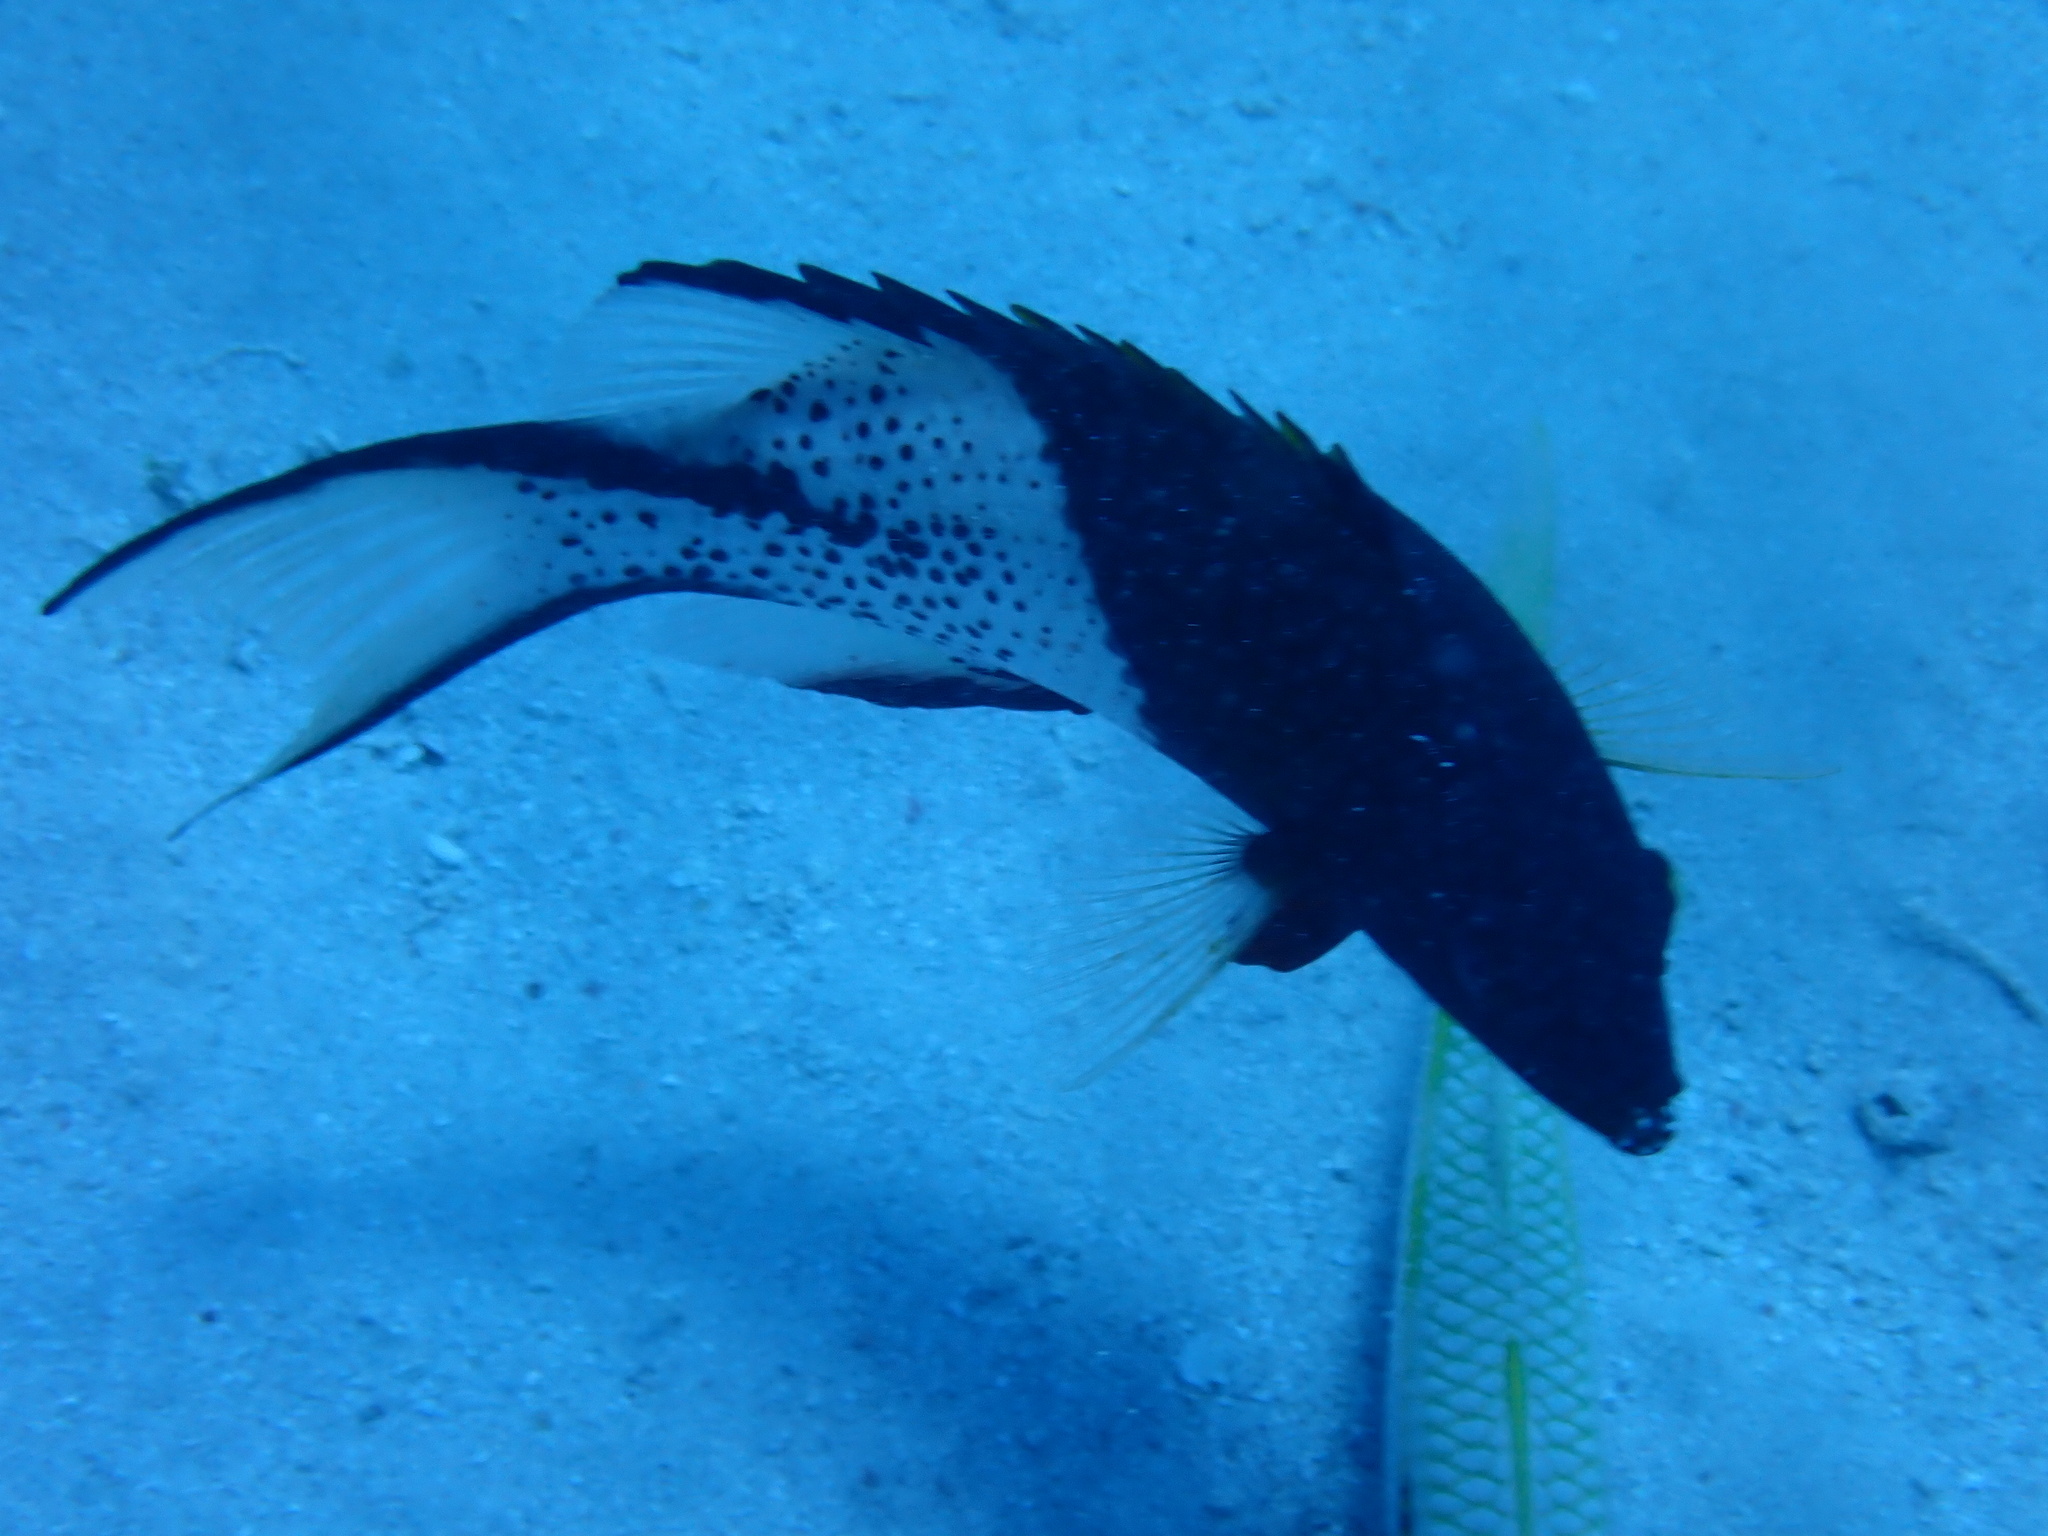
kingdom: Animalia
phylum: Chordata
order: Perciformes
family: Labridae
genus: Bodianus
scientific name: Bodianus anthioides
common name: Lyretail hogfish
